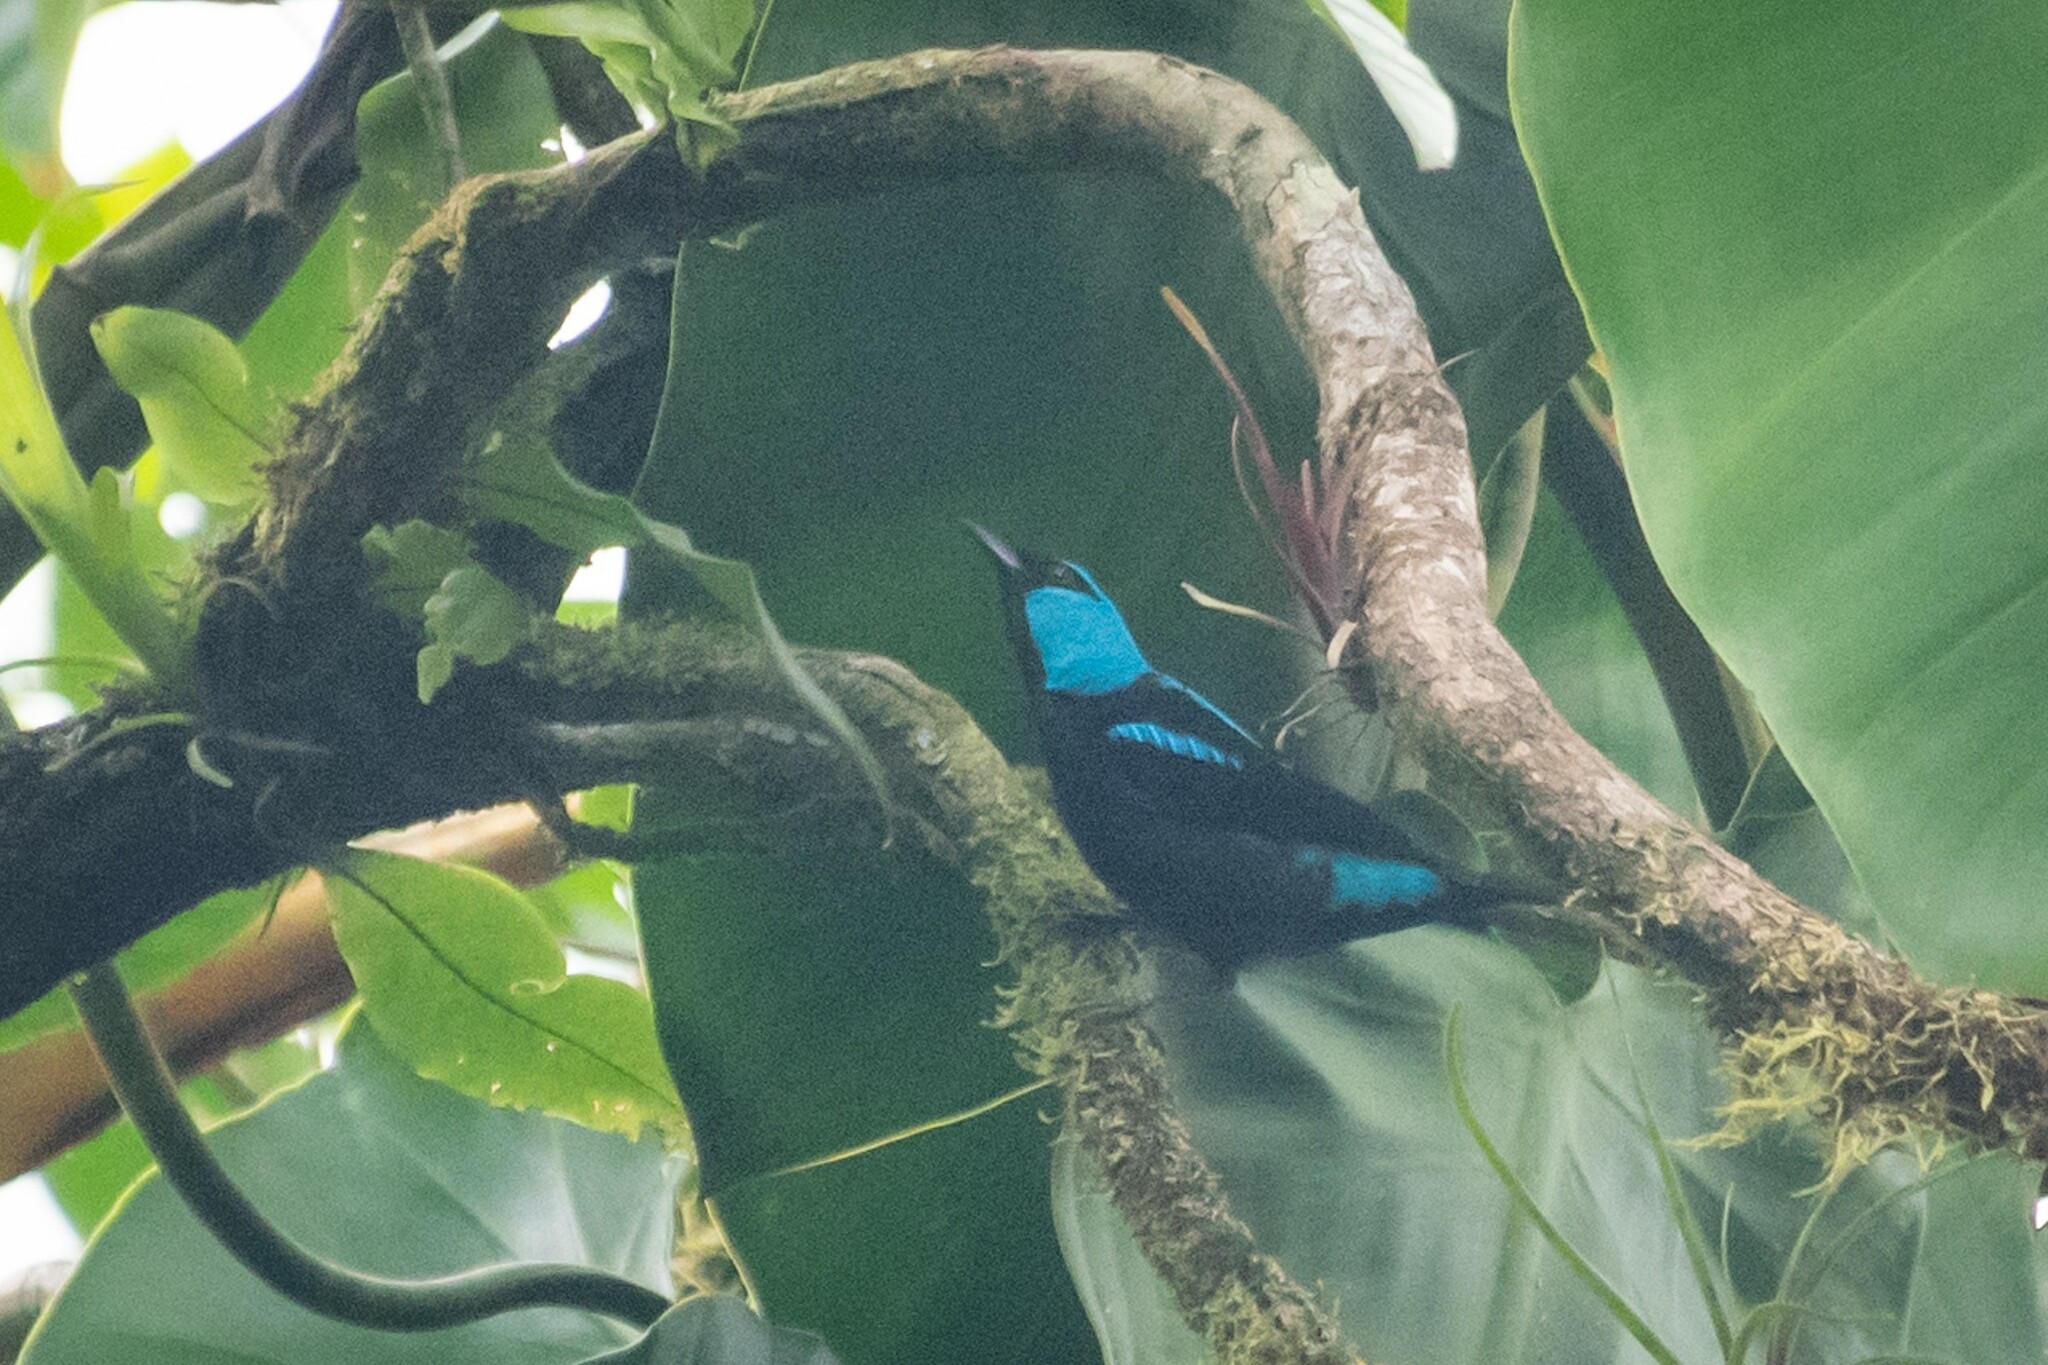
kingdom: Animalia
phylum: Chordata
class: Aves
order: Passeriformes
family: Thraupidae
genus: Dacnis
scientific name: Dacnis venusta
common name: Scarlet-thighed dacnis
